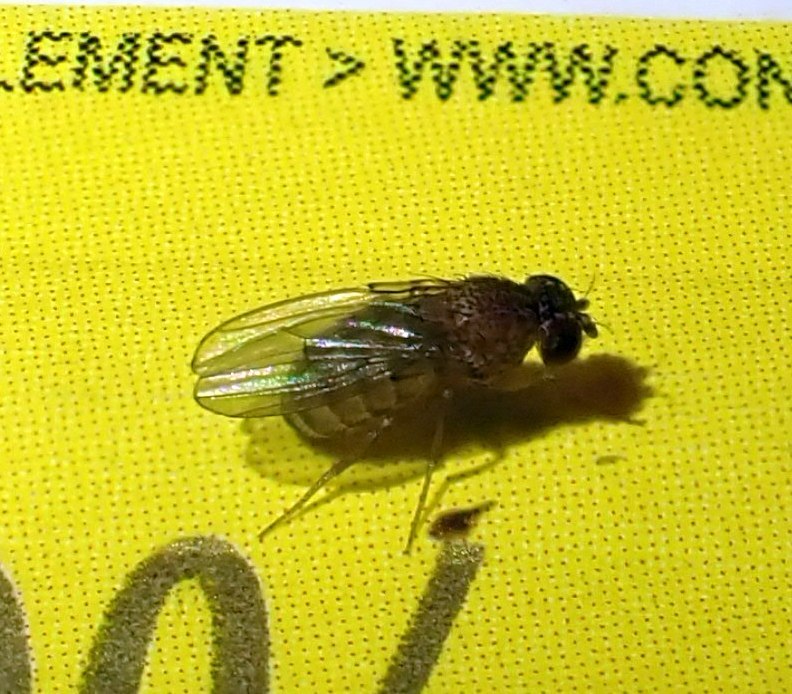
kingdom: Animalia
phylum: Arthropoda
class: Insecta
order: Diptera
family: Drosophilidae
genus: Drosophila
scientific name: Drosophila repleta
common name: Pomace fly
